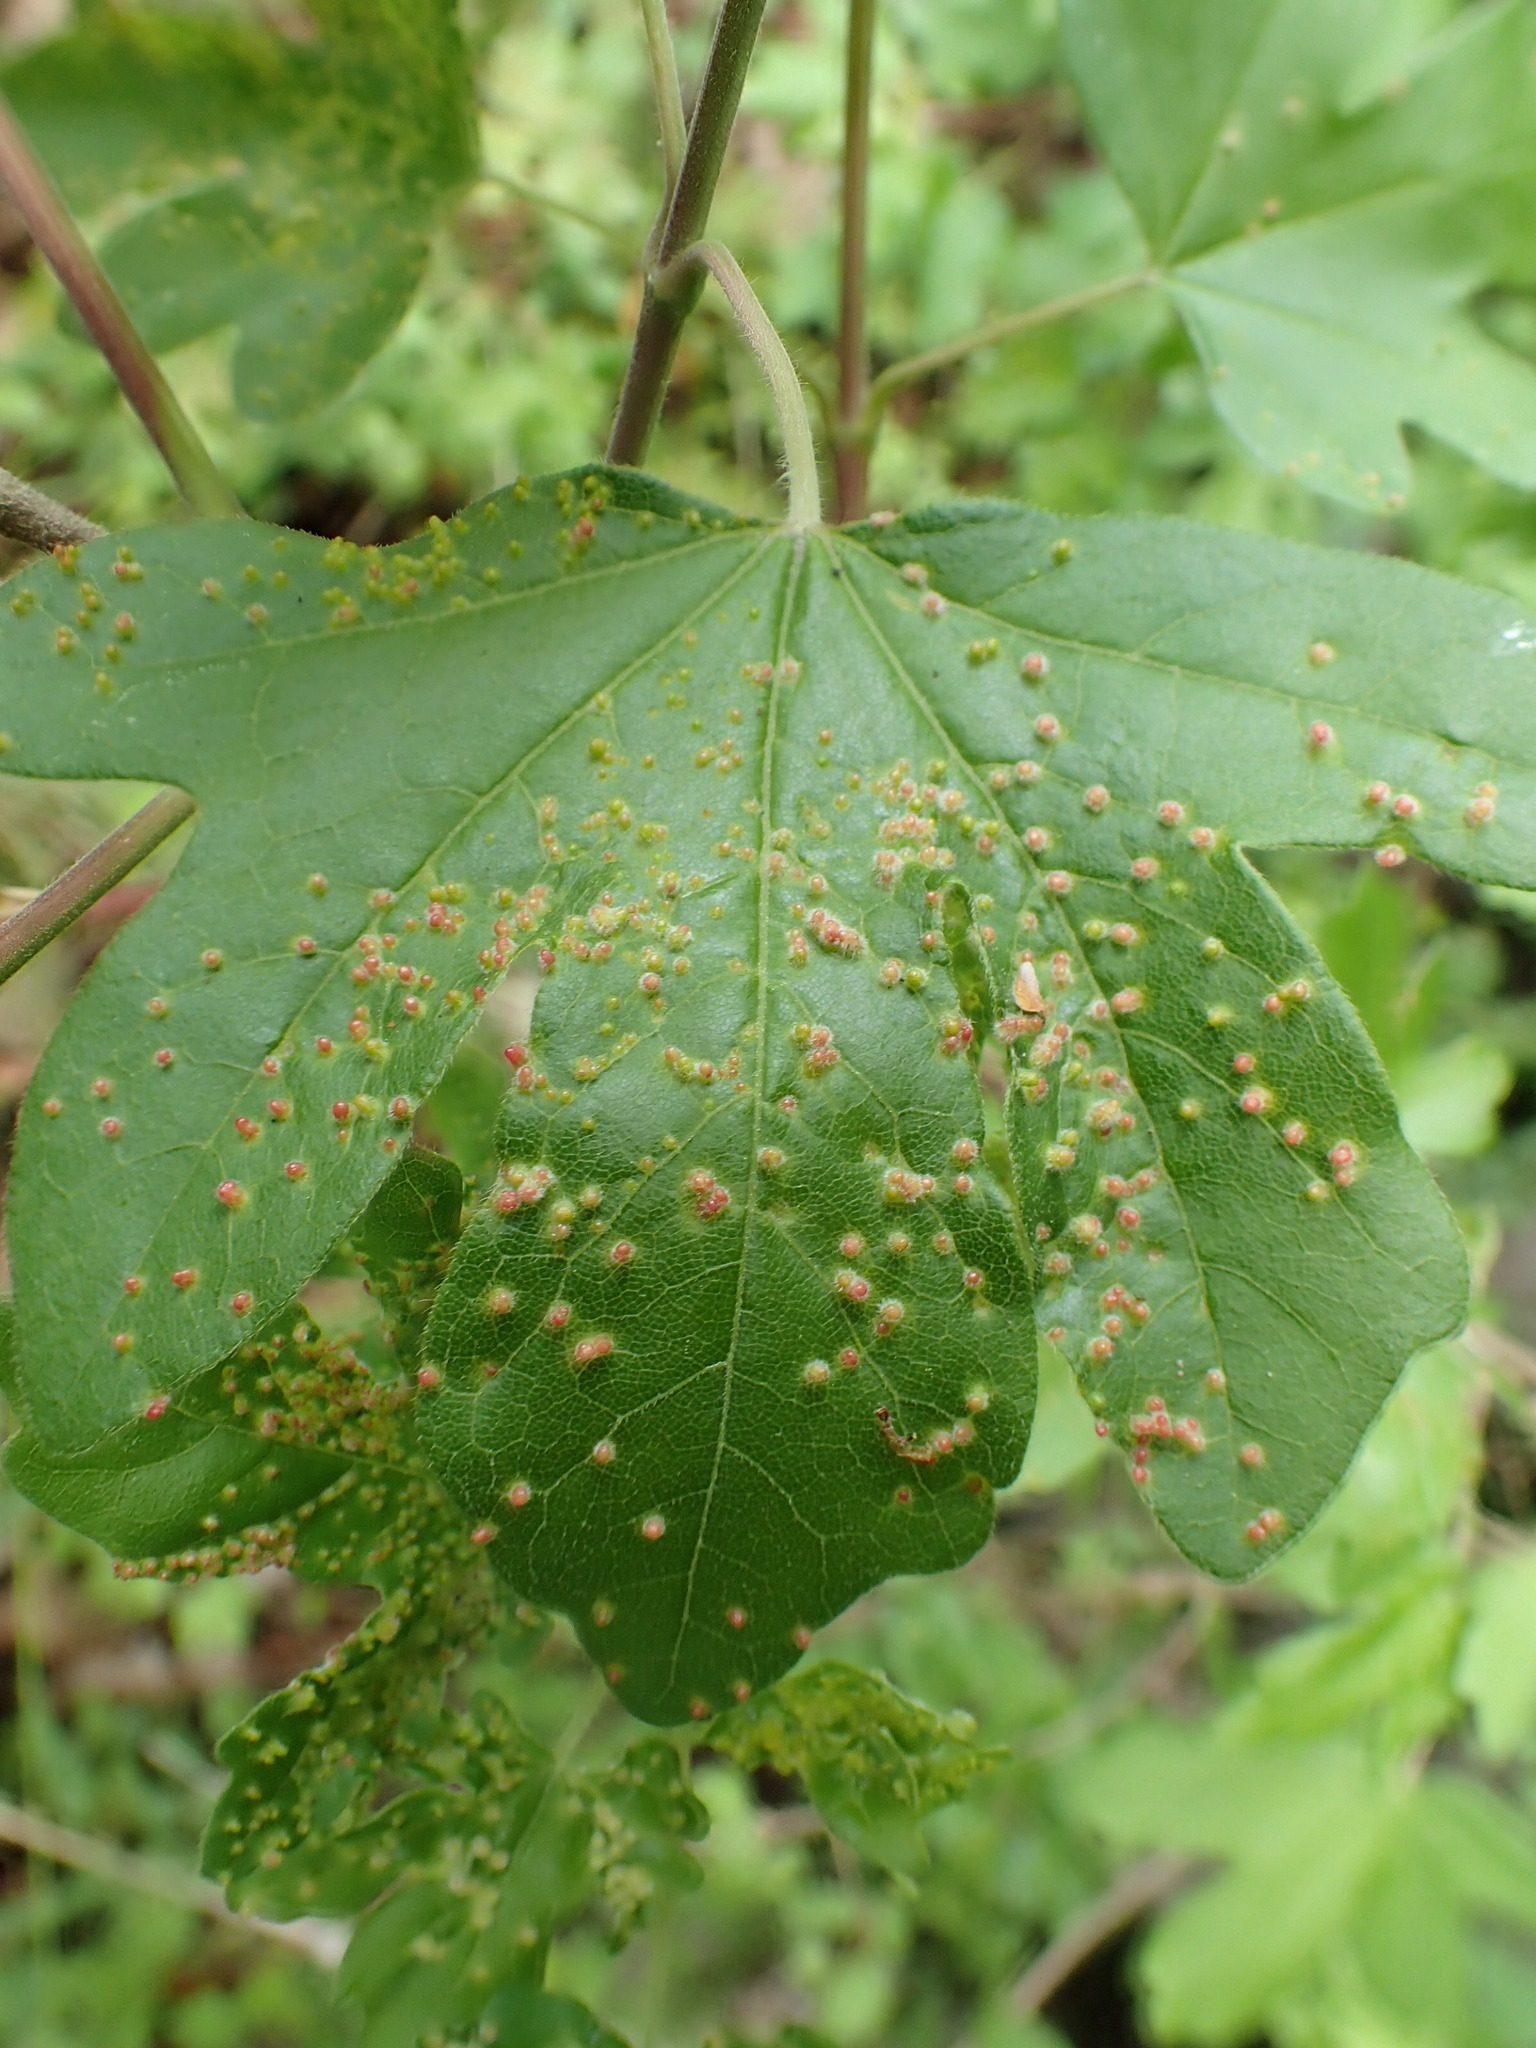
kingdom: Animalia
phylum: Arthropoda
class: Arachnida
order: Trombidiformes
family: Eriophyidae
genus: Aceria
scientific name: Aceria myriadeum
